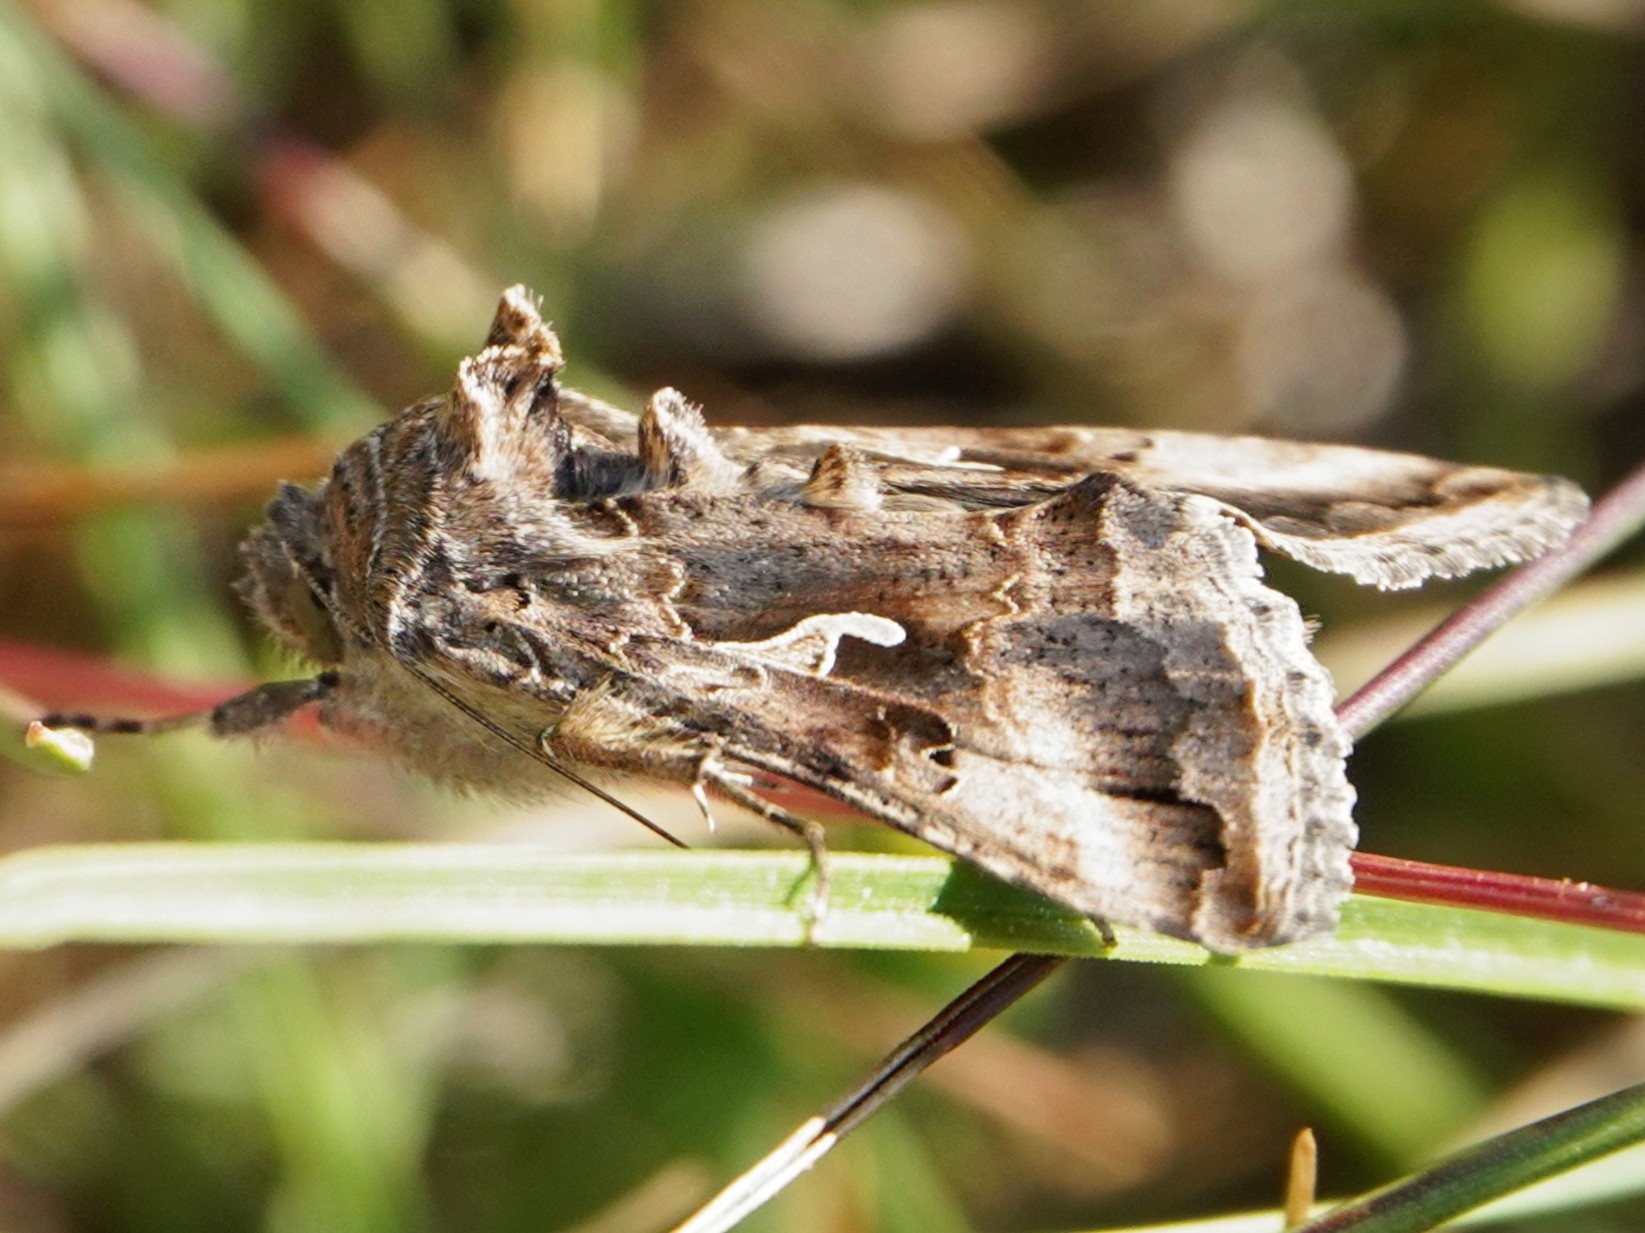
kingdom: Animalia
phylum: Arthropoda
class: Insecta
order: Lepidoptera
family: Noctuidae
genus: Autographa
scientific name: Autographa gamma
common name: Silver y
